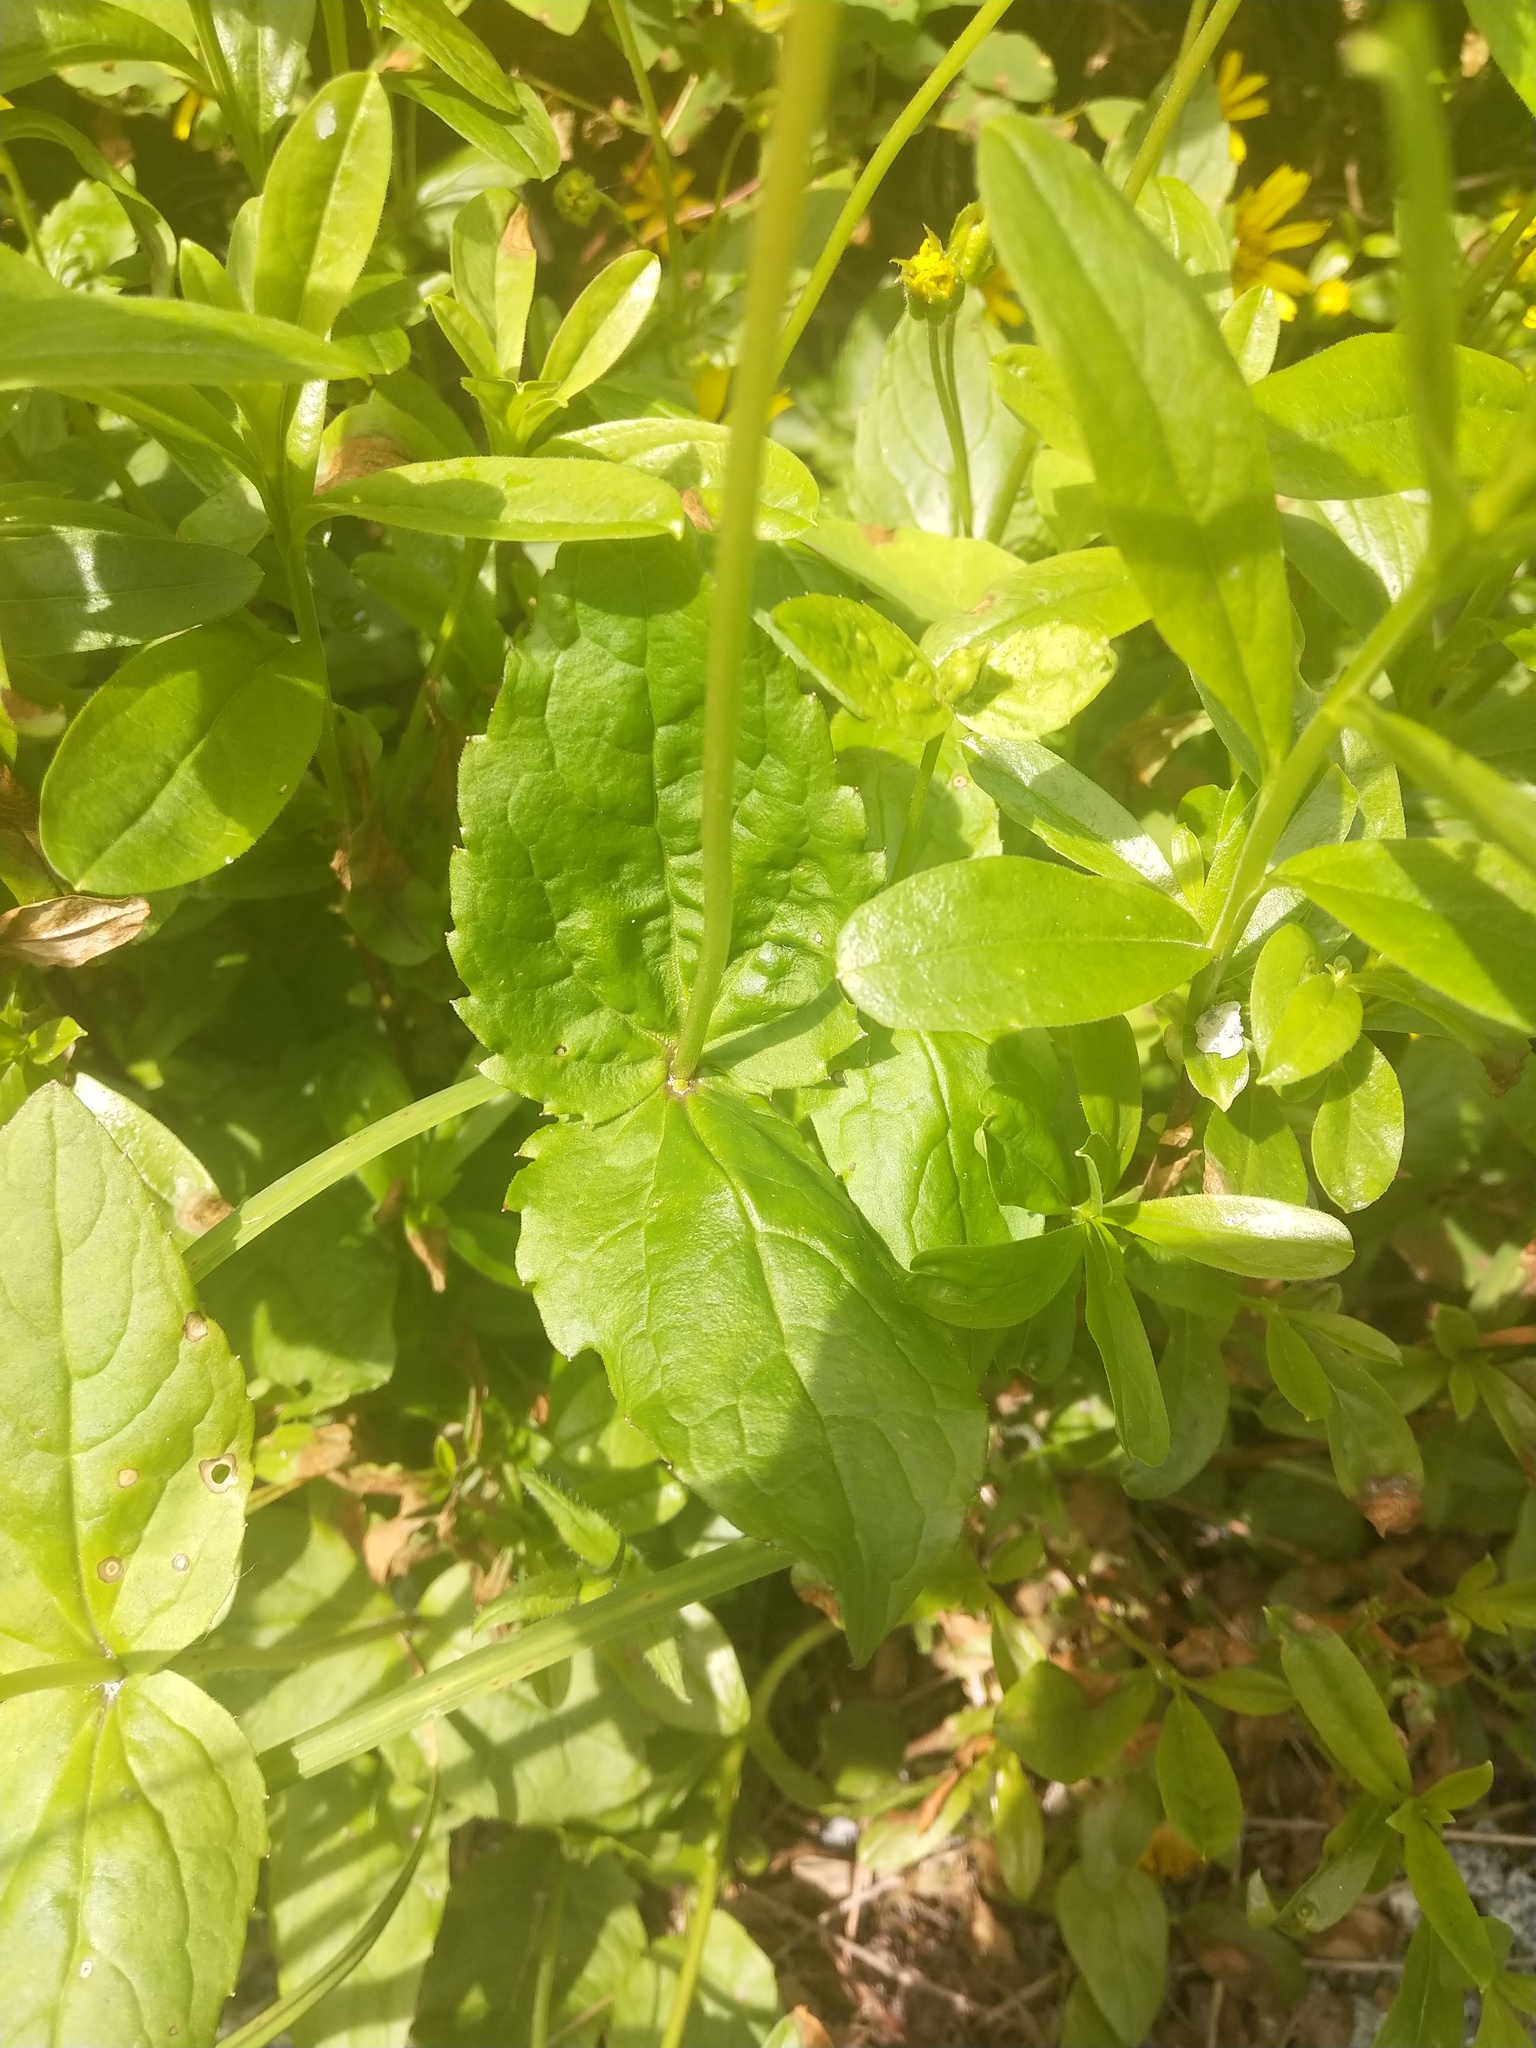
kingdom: Plantae
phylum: Tracheophyta
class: Magnoliopsida
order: Asterales
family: Asteraceae
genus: Arnica
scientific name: Arnica latifolia
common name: Arnica
